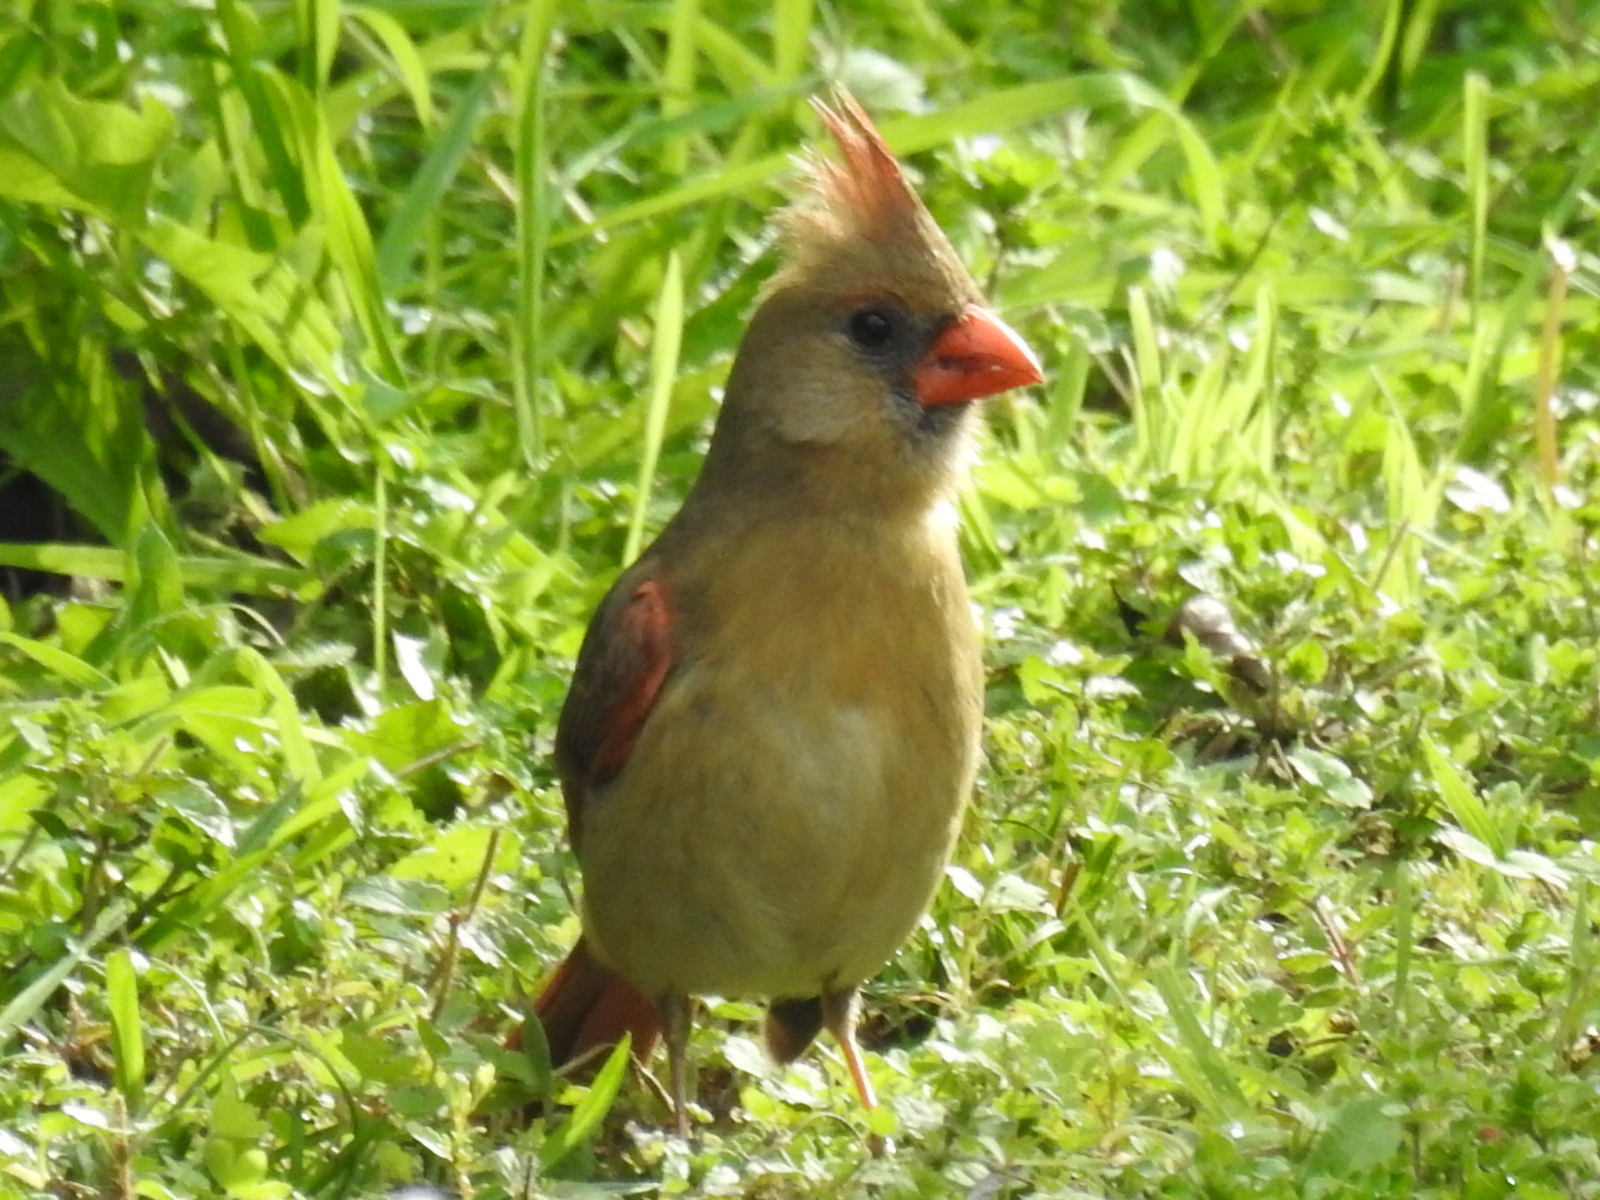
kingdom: Animalia
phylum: Chordata
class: Aves
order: Passeriformes
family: Cardinalidae
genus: Cardinalis
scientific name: Cardinalis cardinalis
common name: Northern cardinal
